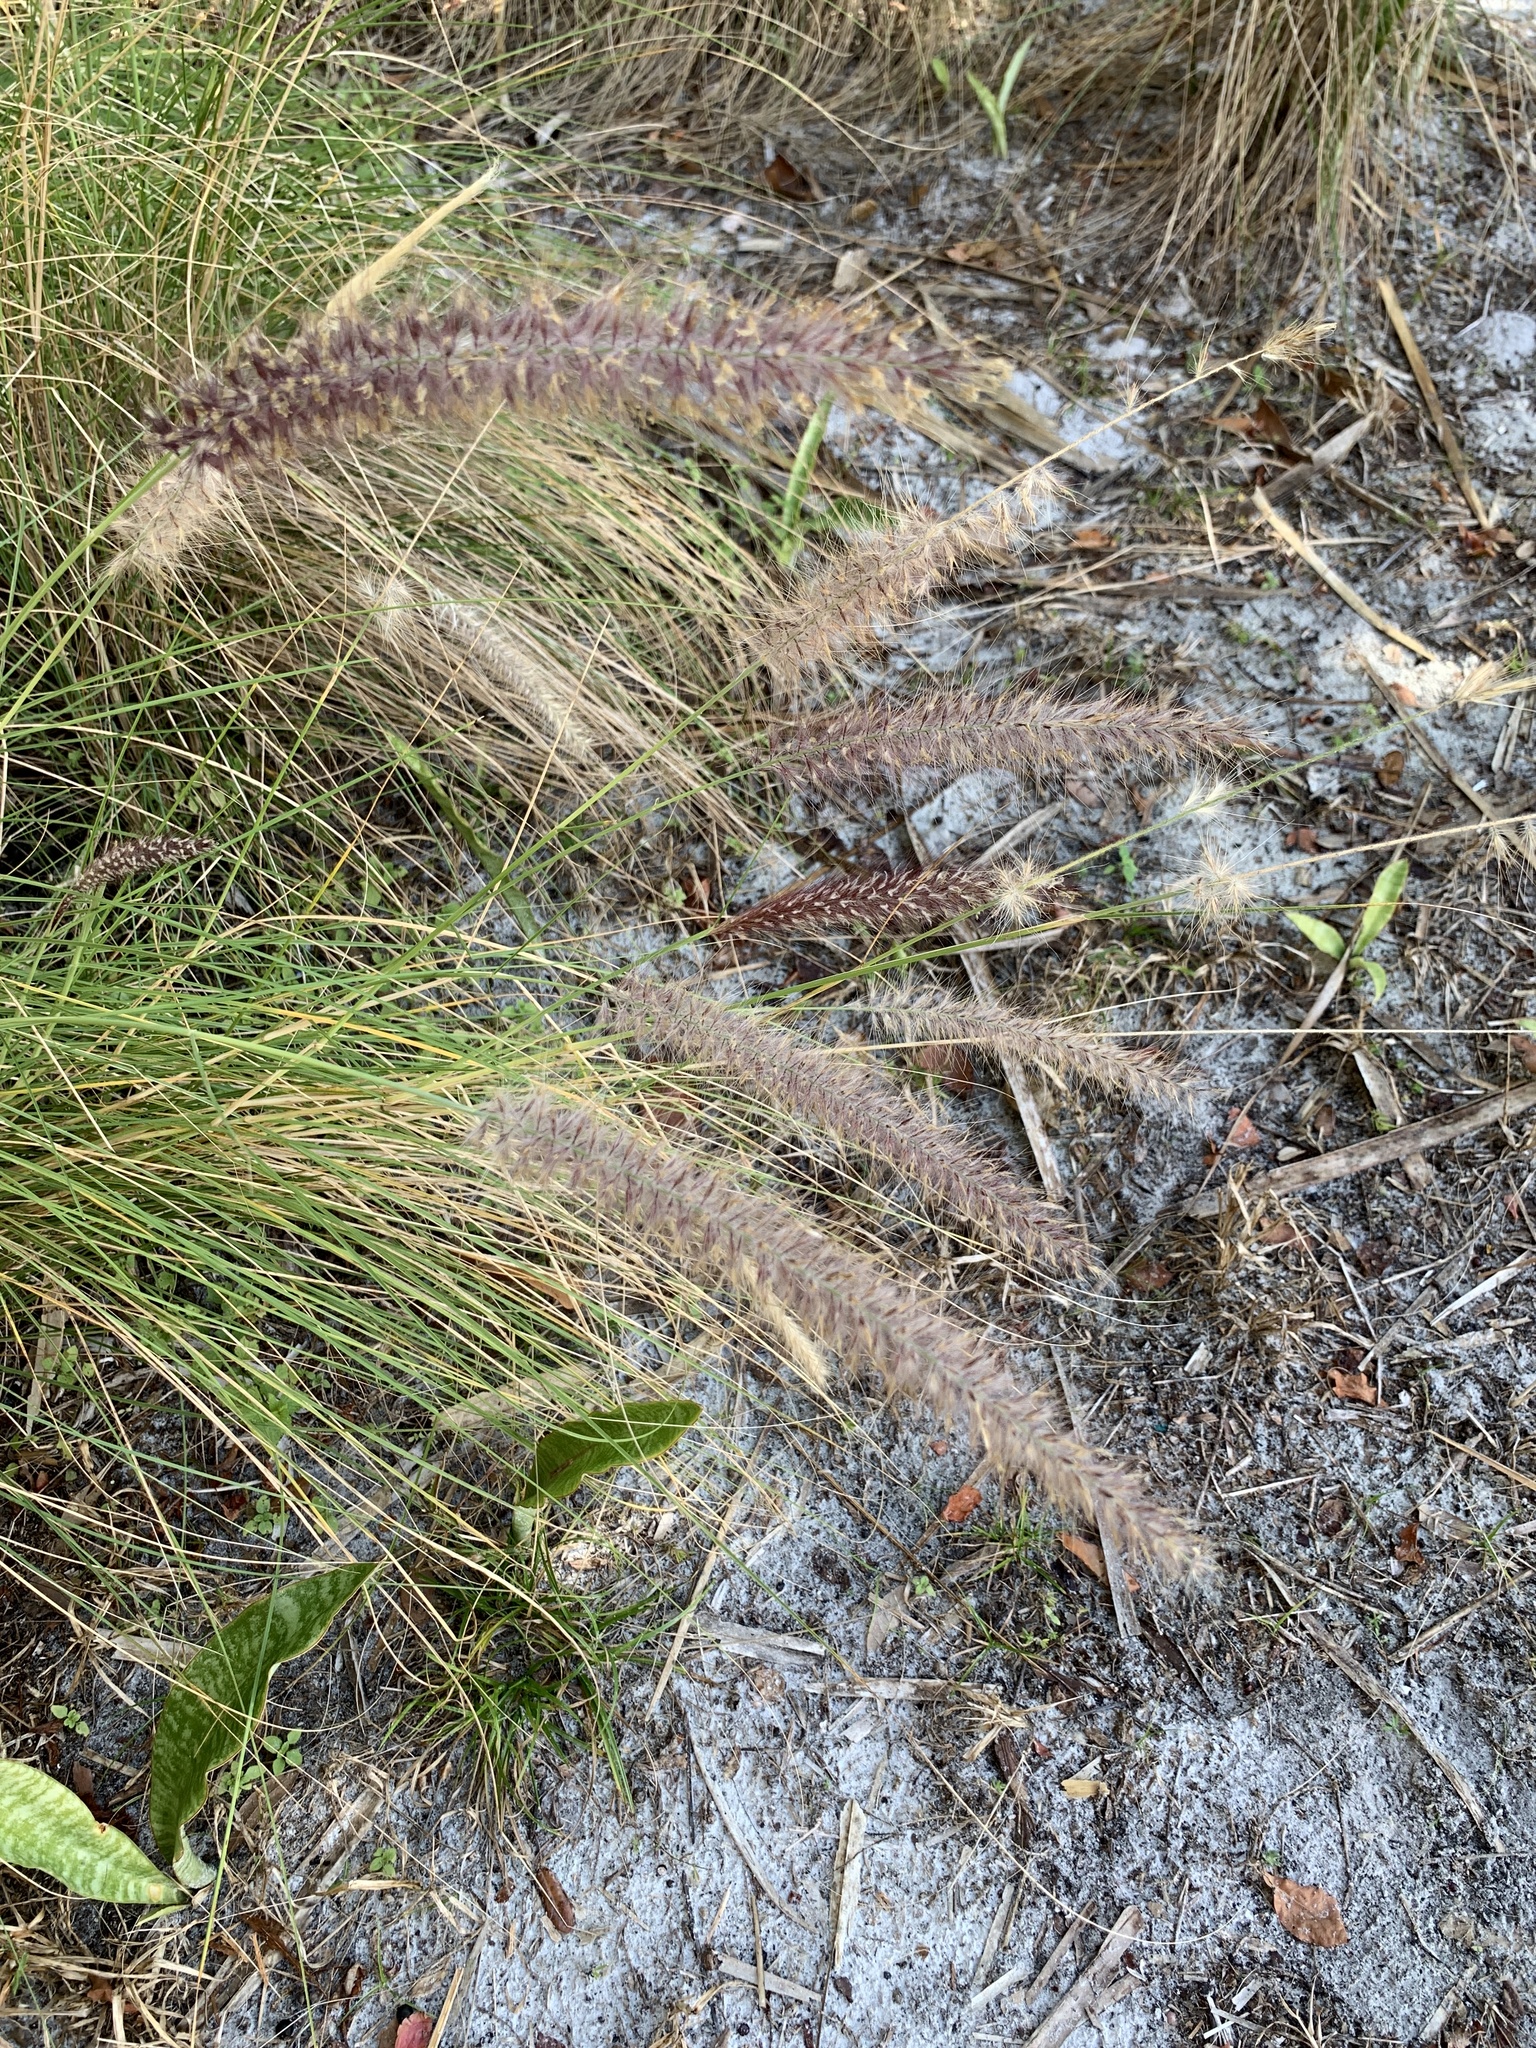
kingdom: Plantae
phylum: Tracheophyta
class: Liliopsida
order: Poales
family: Poaceae
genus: Cenchrus
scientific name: Cenchrus setaceus
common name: Crimson fountaingrass
